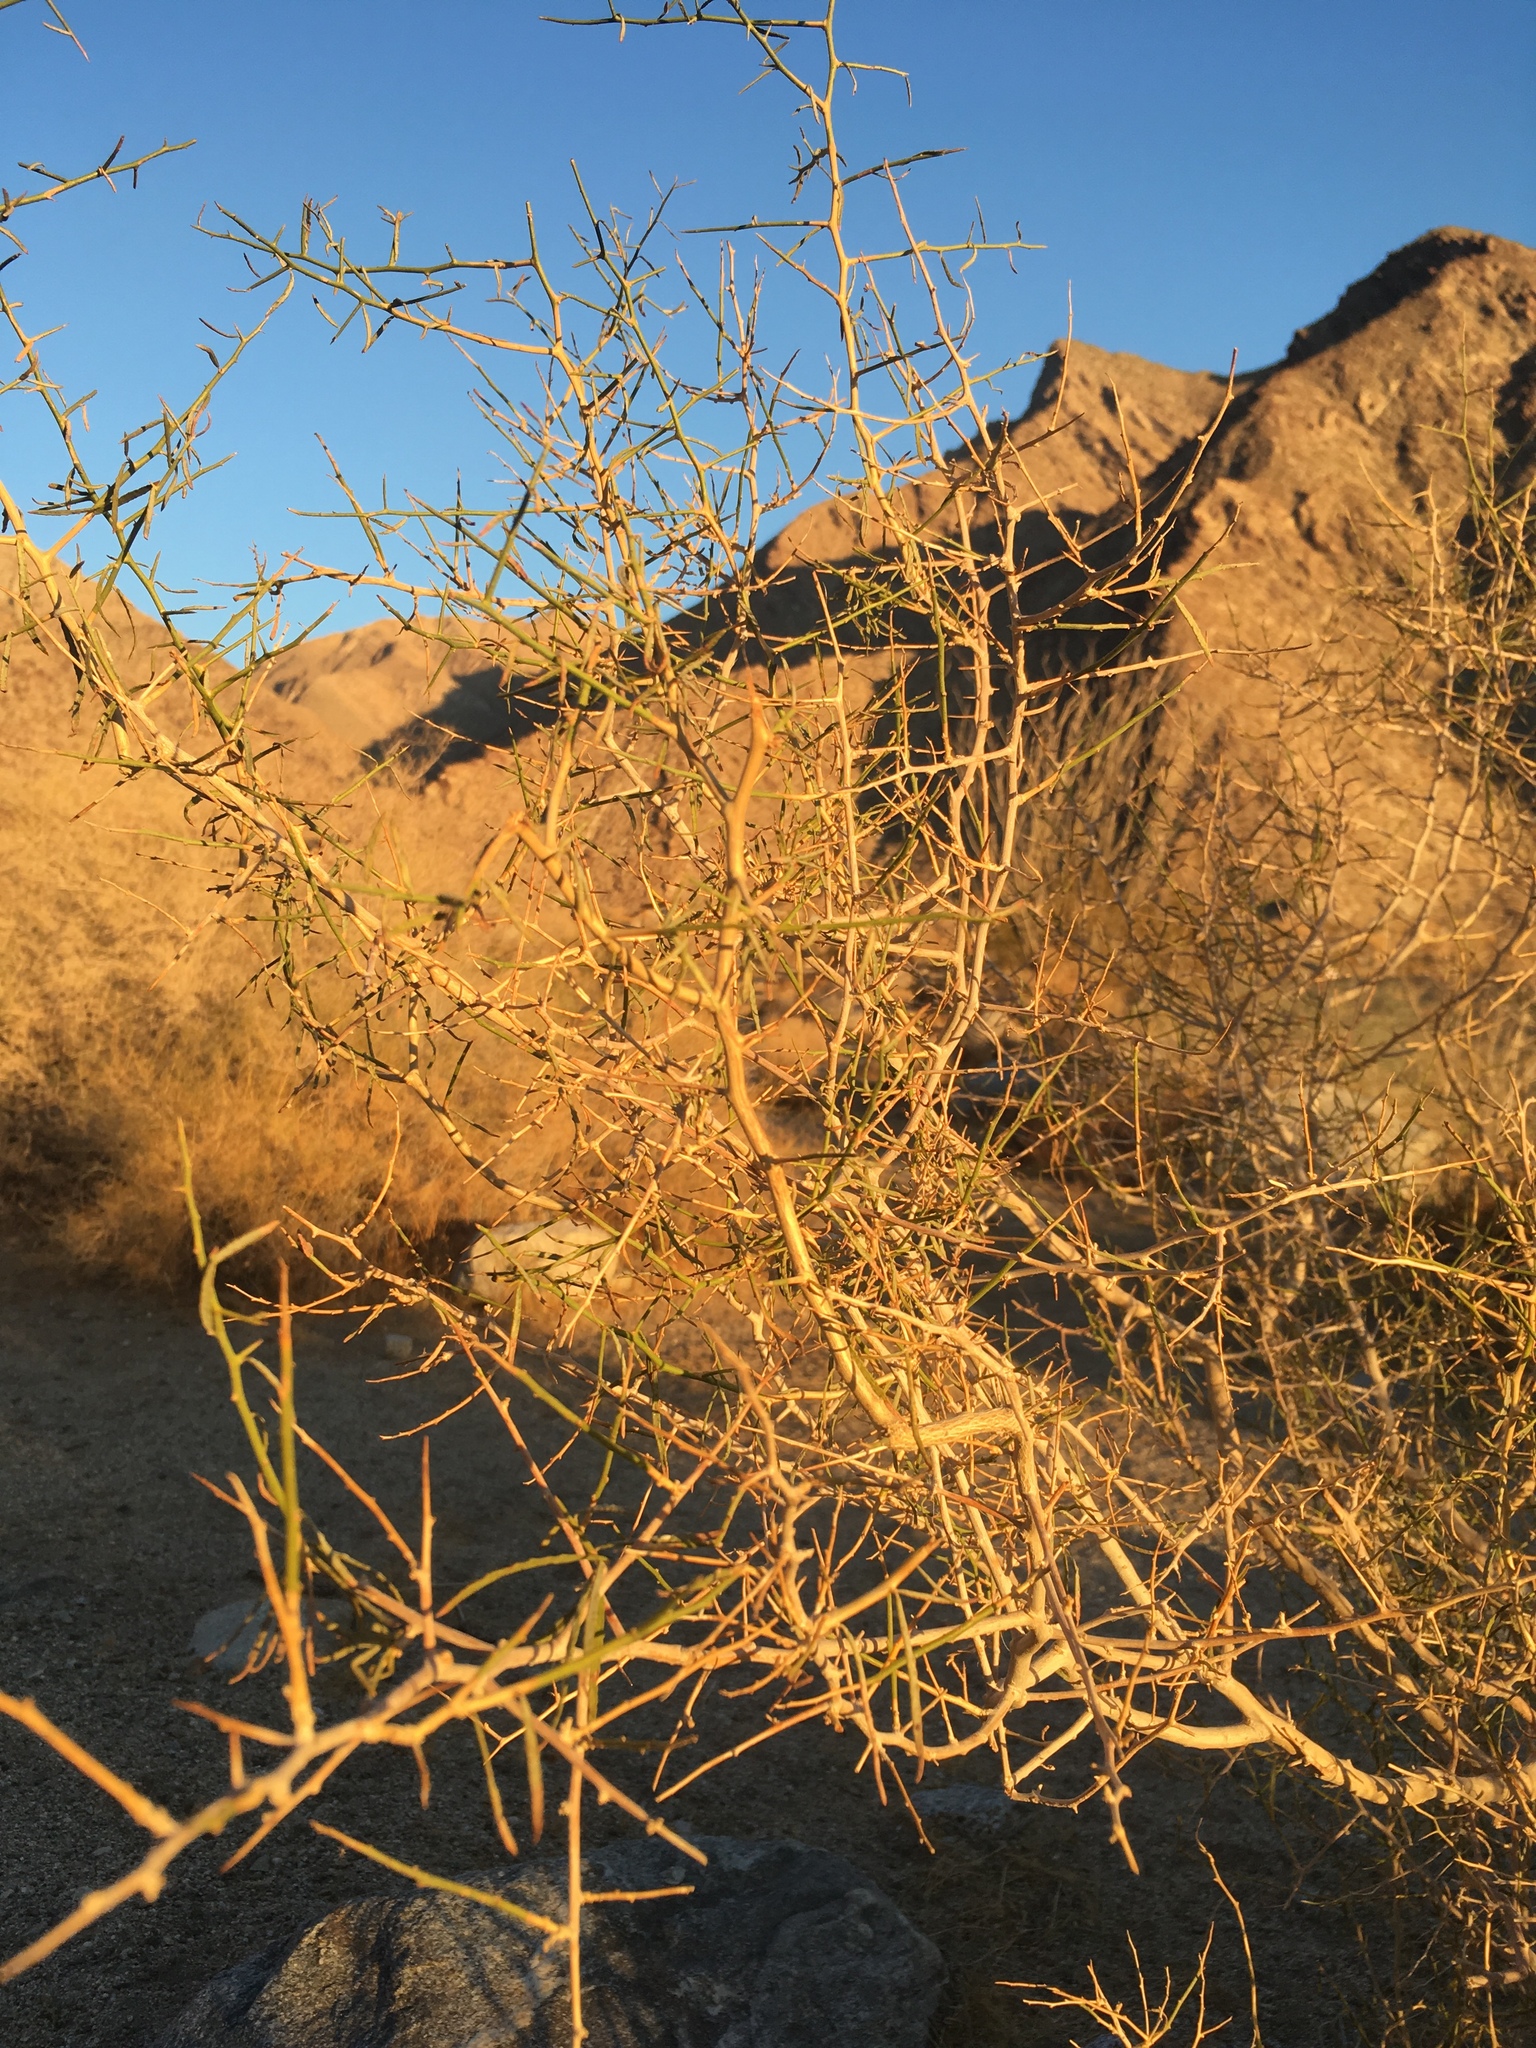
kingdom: Plantae
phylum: Tracheophyta
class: Magnoliopsida
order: Fabales
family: Fabaceae
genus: Psorothamnus
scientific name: Psorothamnus schottii
